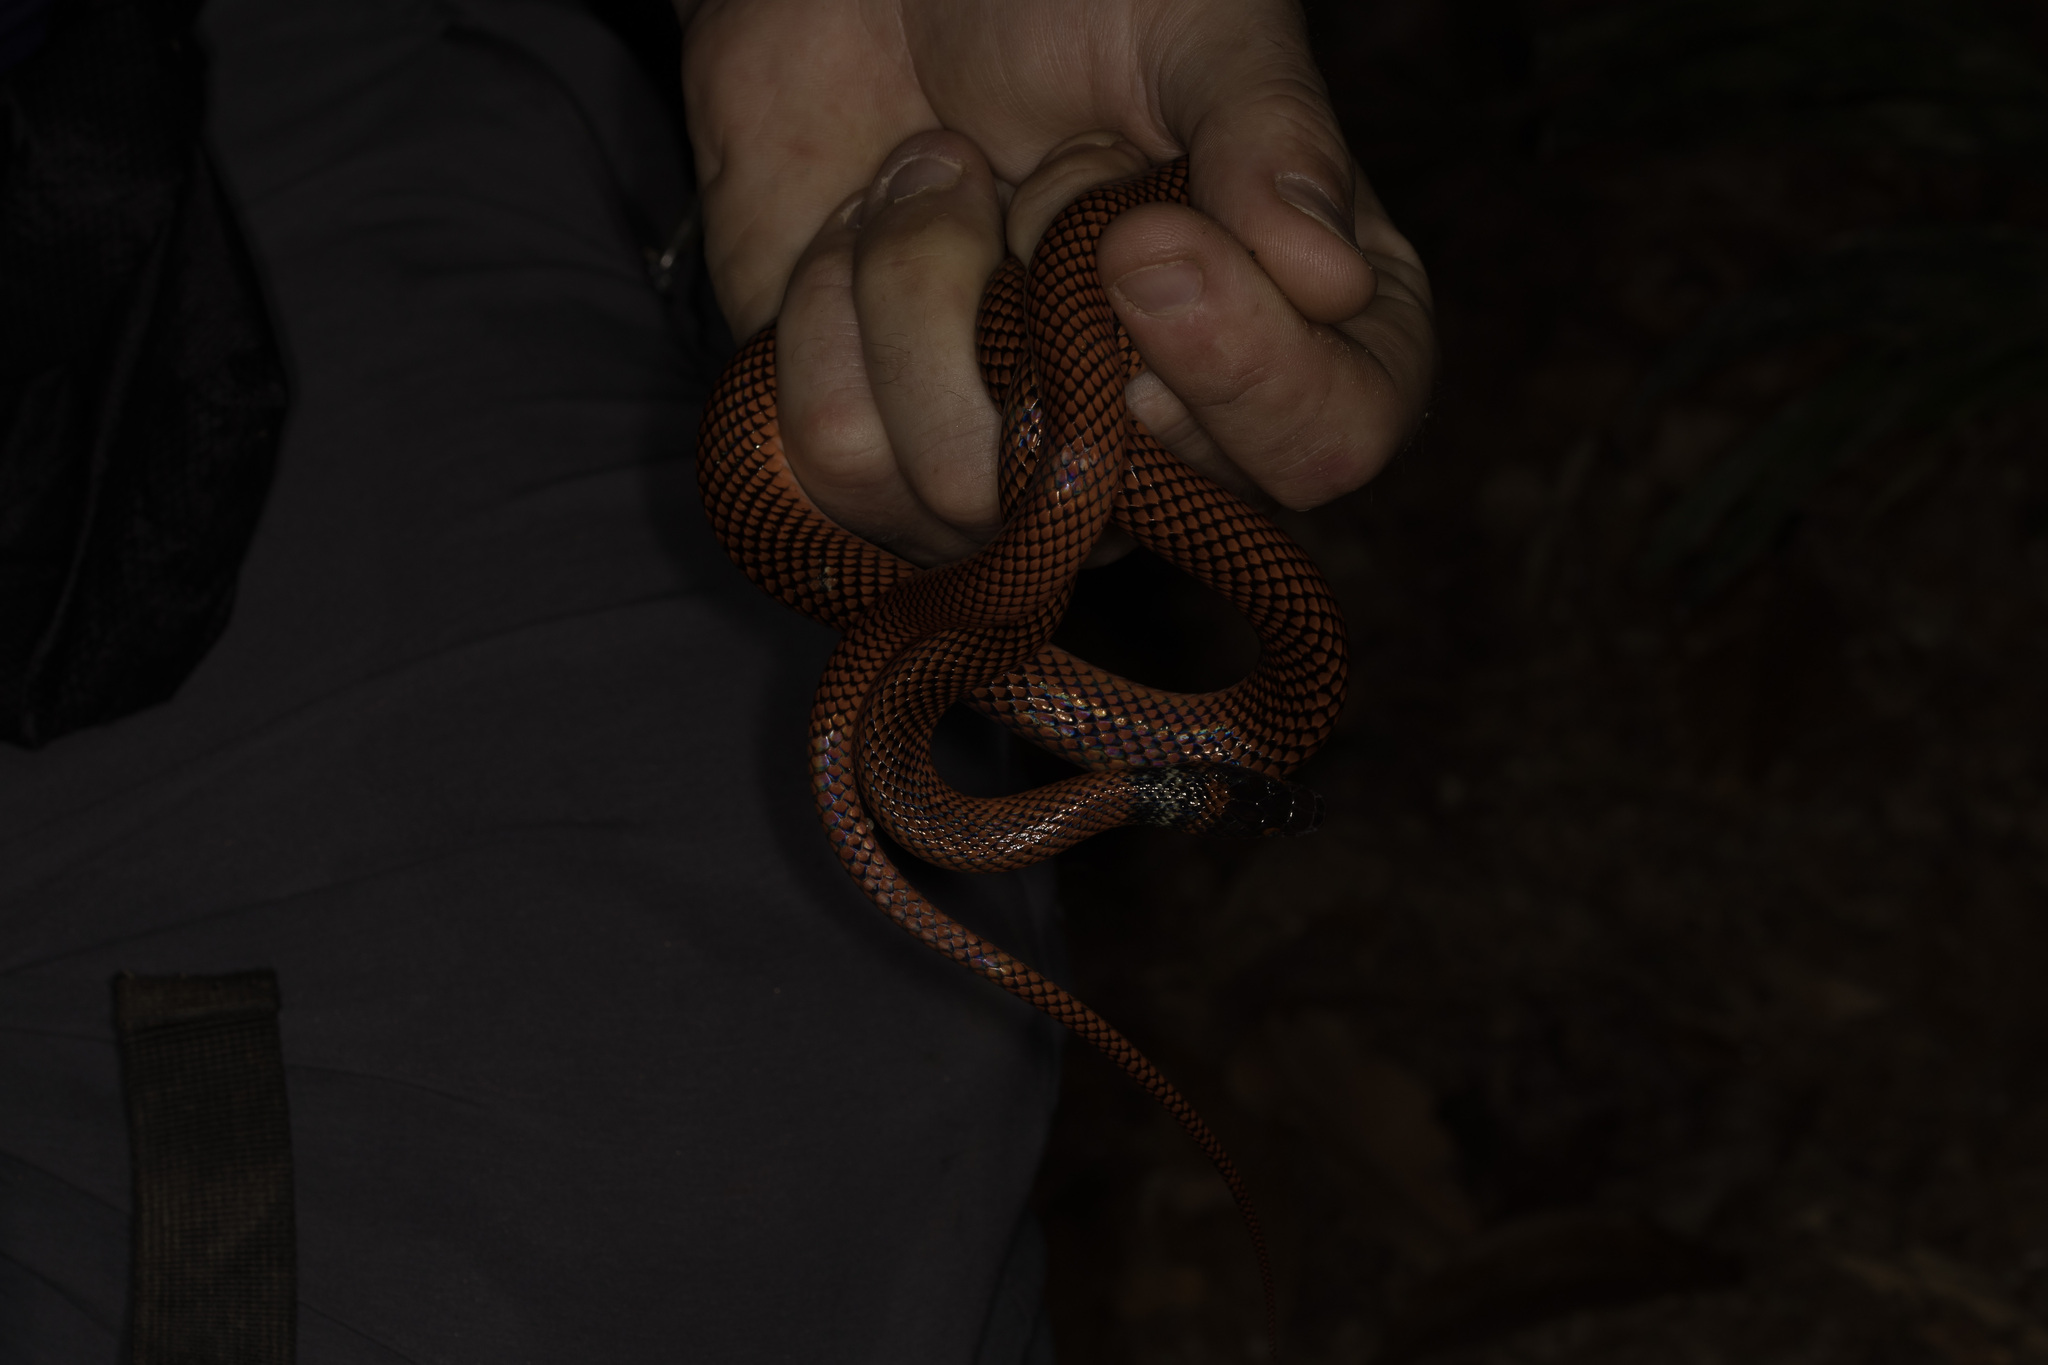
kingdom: Animalia
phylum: Chordata
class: Squamata
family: Colubridae
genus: Oxyrhopus
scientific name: Oxyrhopus melanogenys
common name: Tschudi's false coral snake
